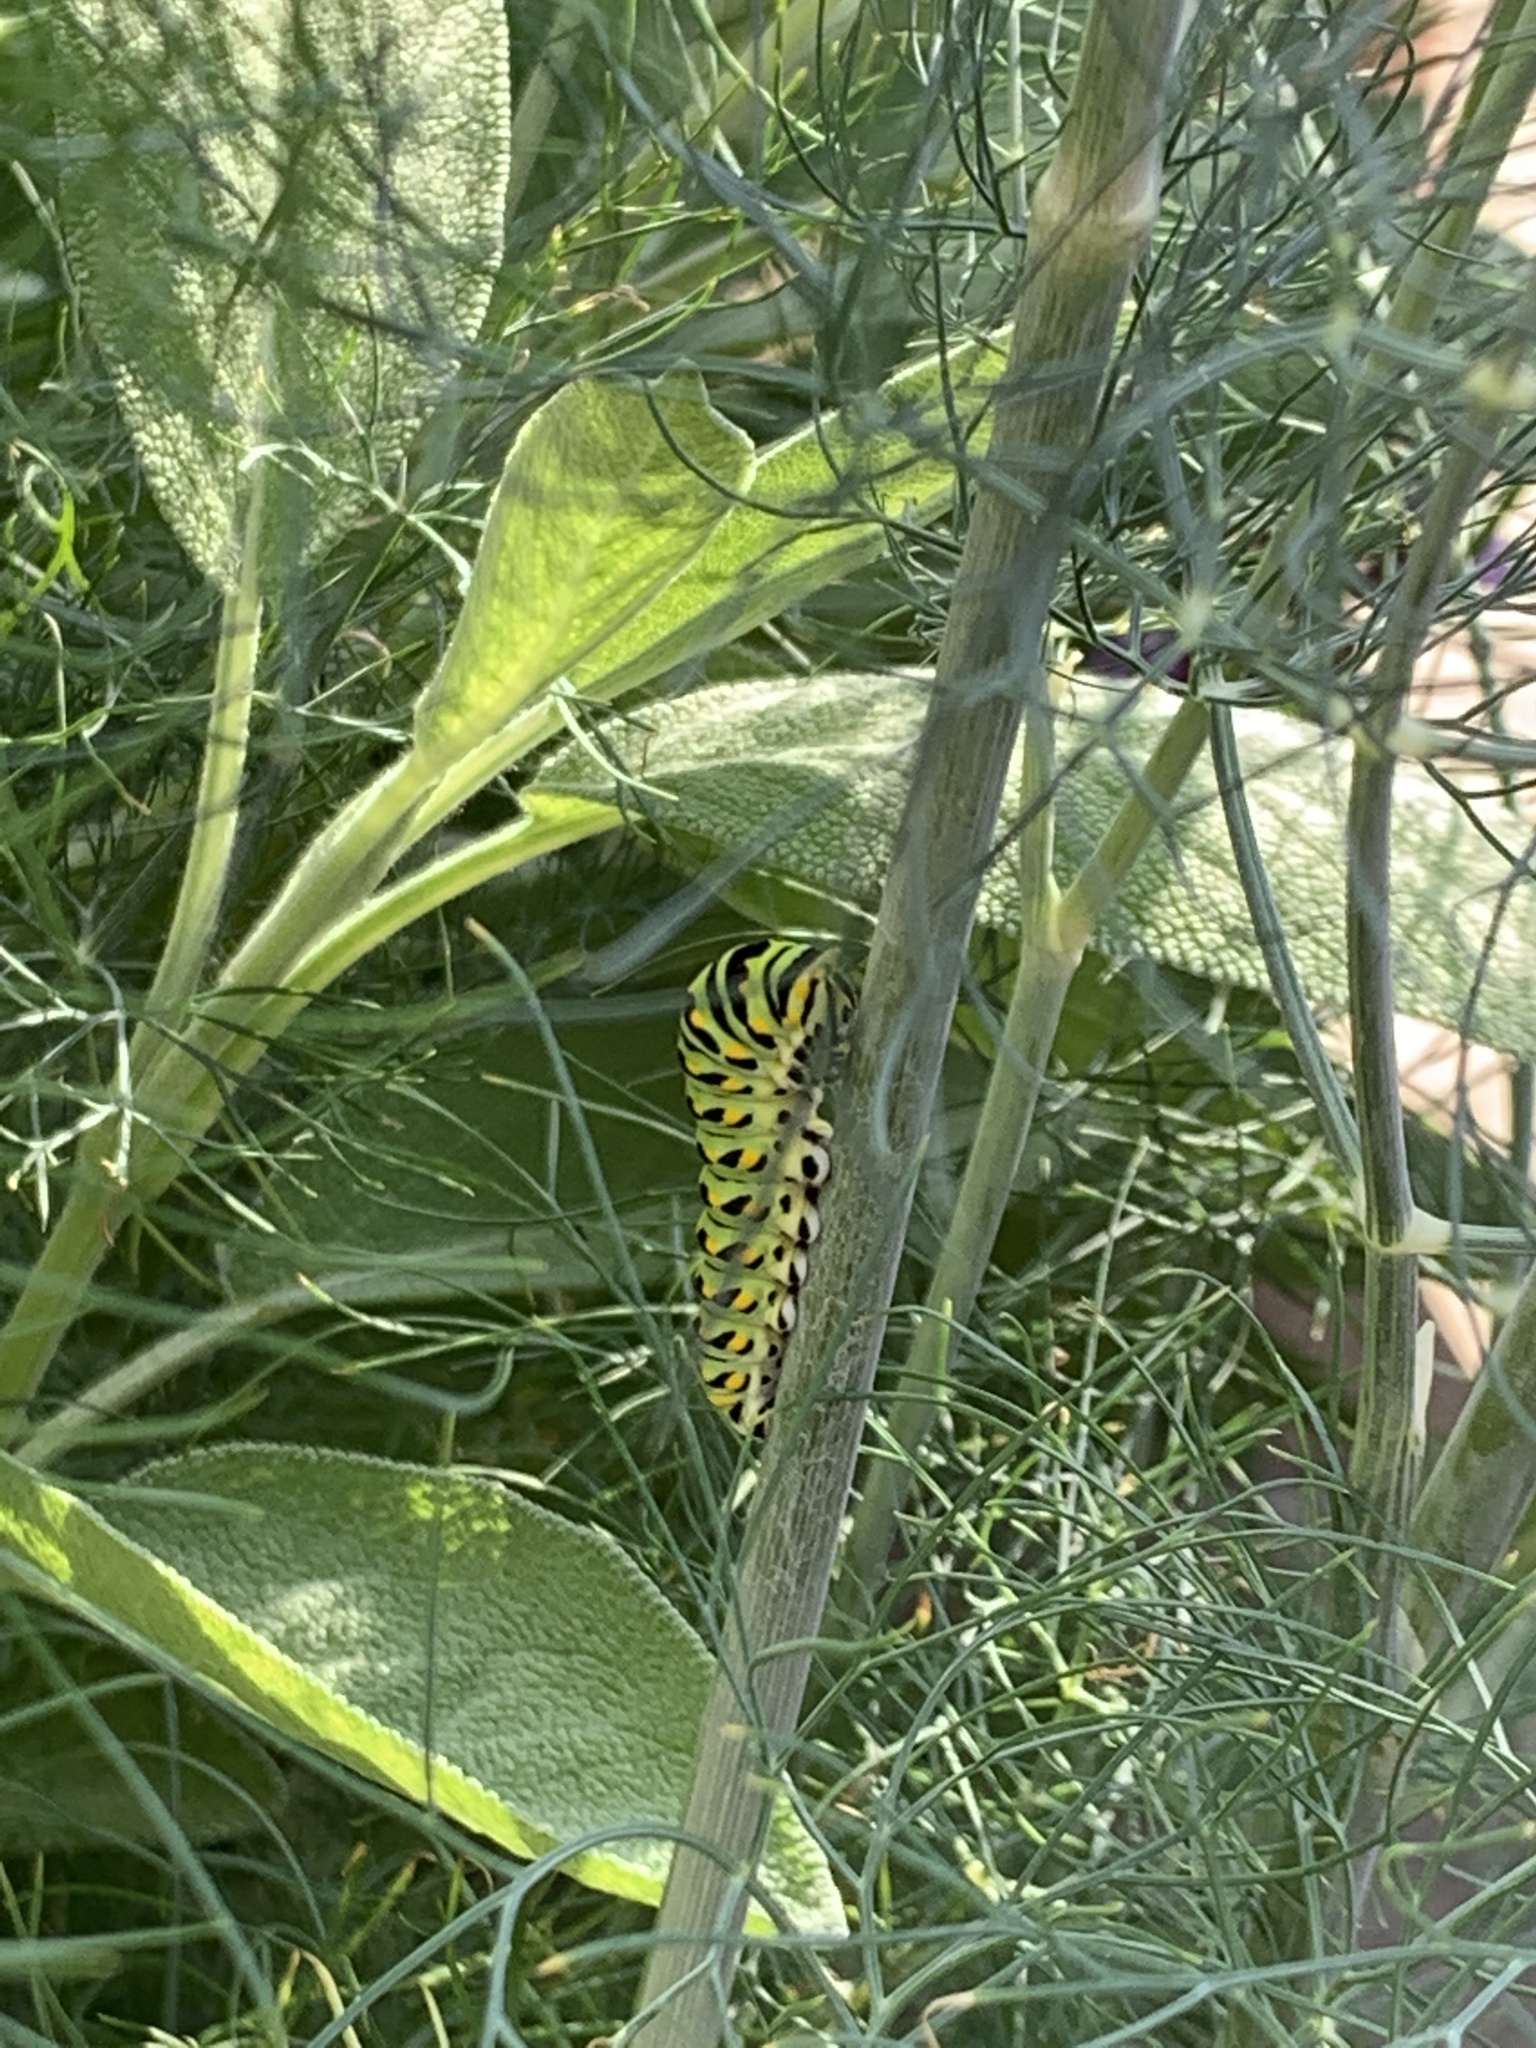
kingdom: Animalia
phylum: Arthropoda
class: Insecta
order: Lepidoptera
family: Papilionidae
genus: Papilio
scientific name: Papilio polyxenes
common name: Black swallowtail
